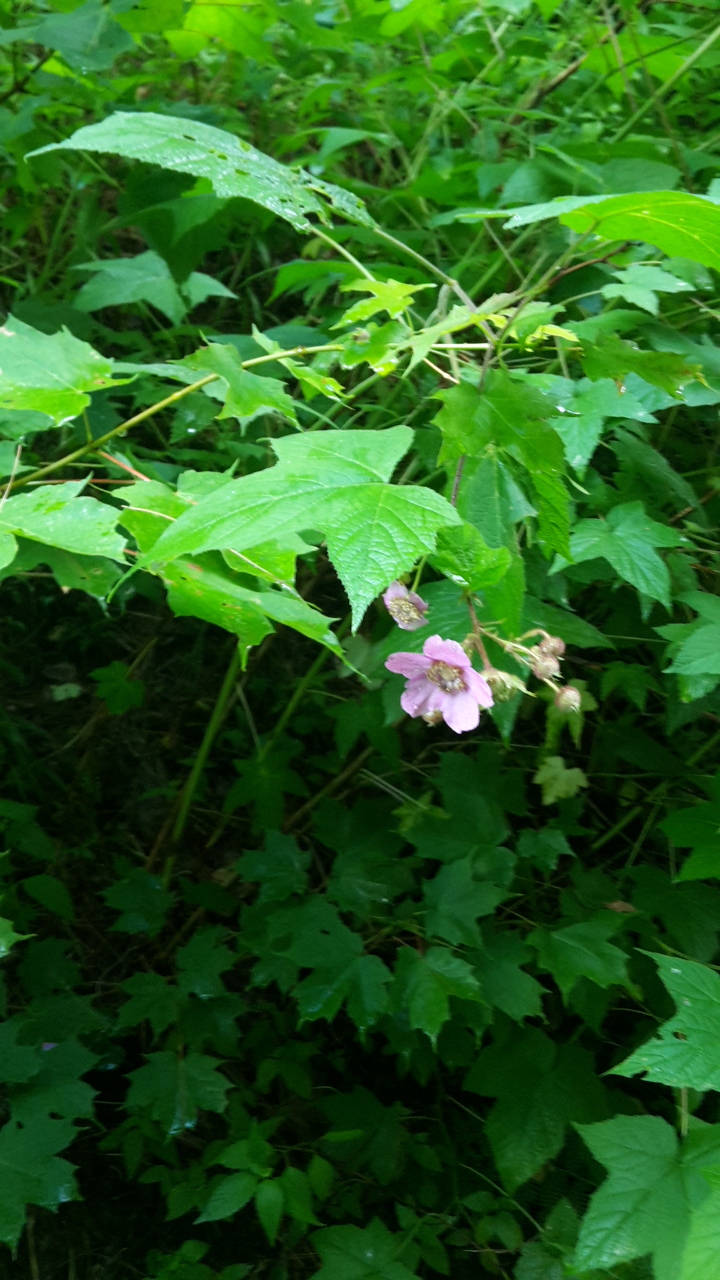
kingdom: Plantae
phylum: Tracheophyta
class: Magnoliopsida
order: Rosales
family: Rosaceae
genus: Rubus
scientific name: Rubus odoratus
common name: Purple-flowered raspberry
